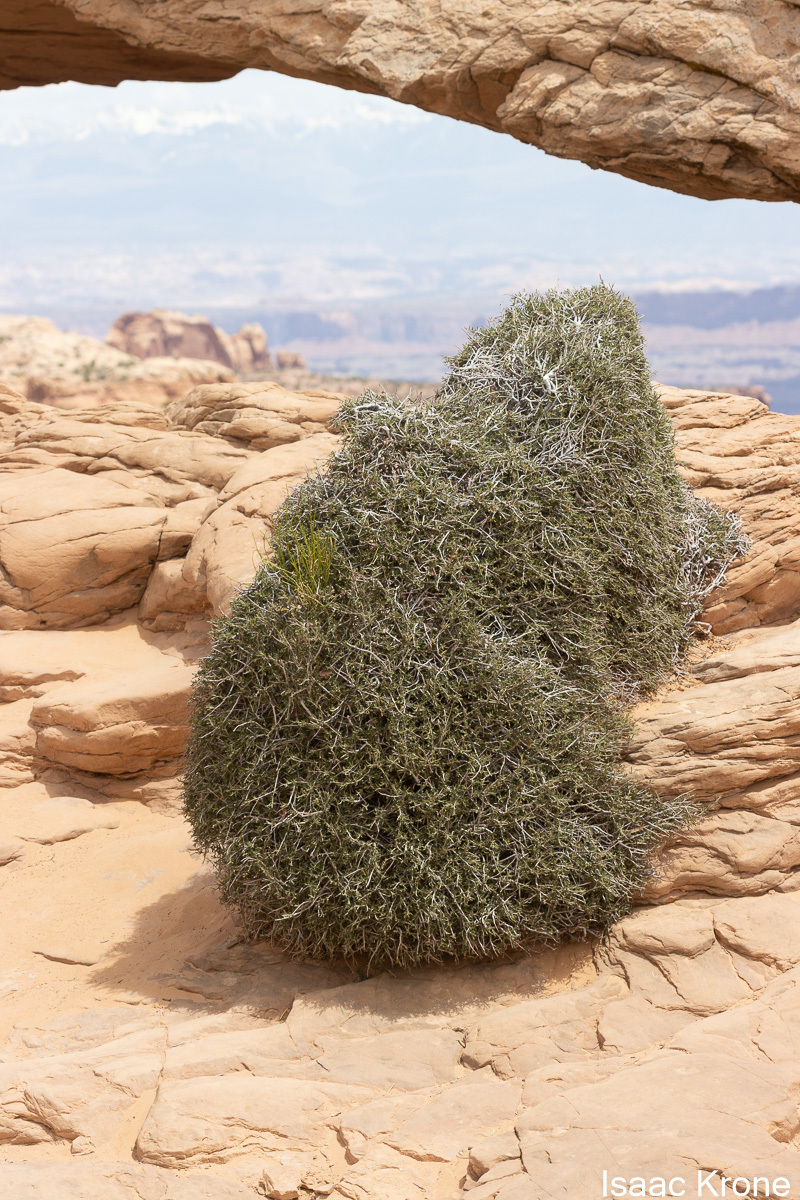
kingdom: Plantae
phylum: Tracheophyta
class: Magnoliopsida
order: Rosales
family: Rosaceae
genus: Cercocarpus
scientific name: Cercocarpus intricatus
